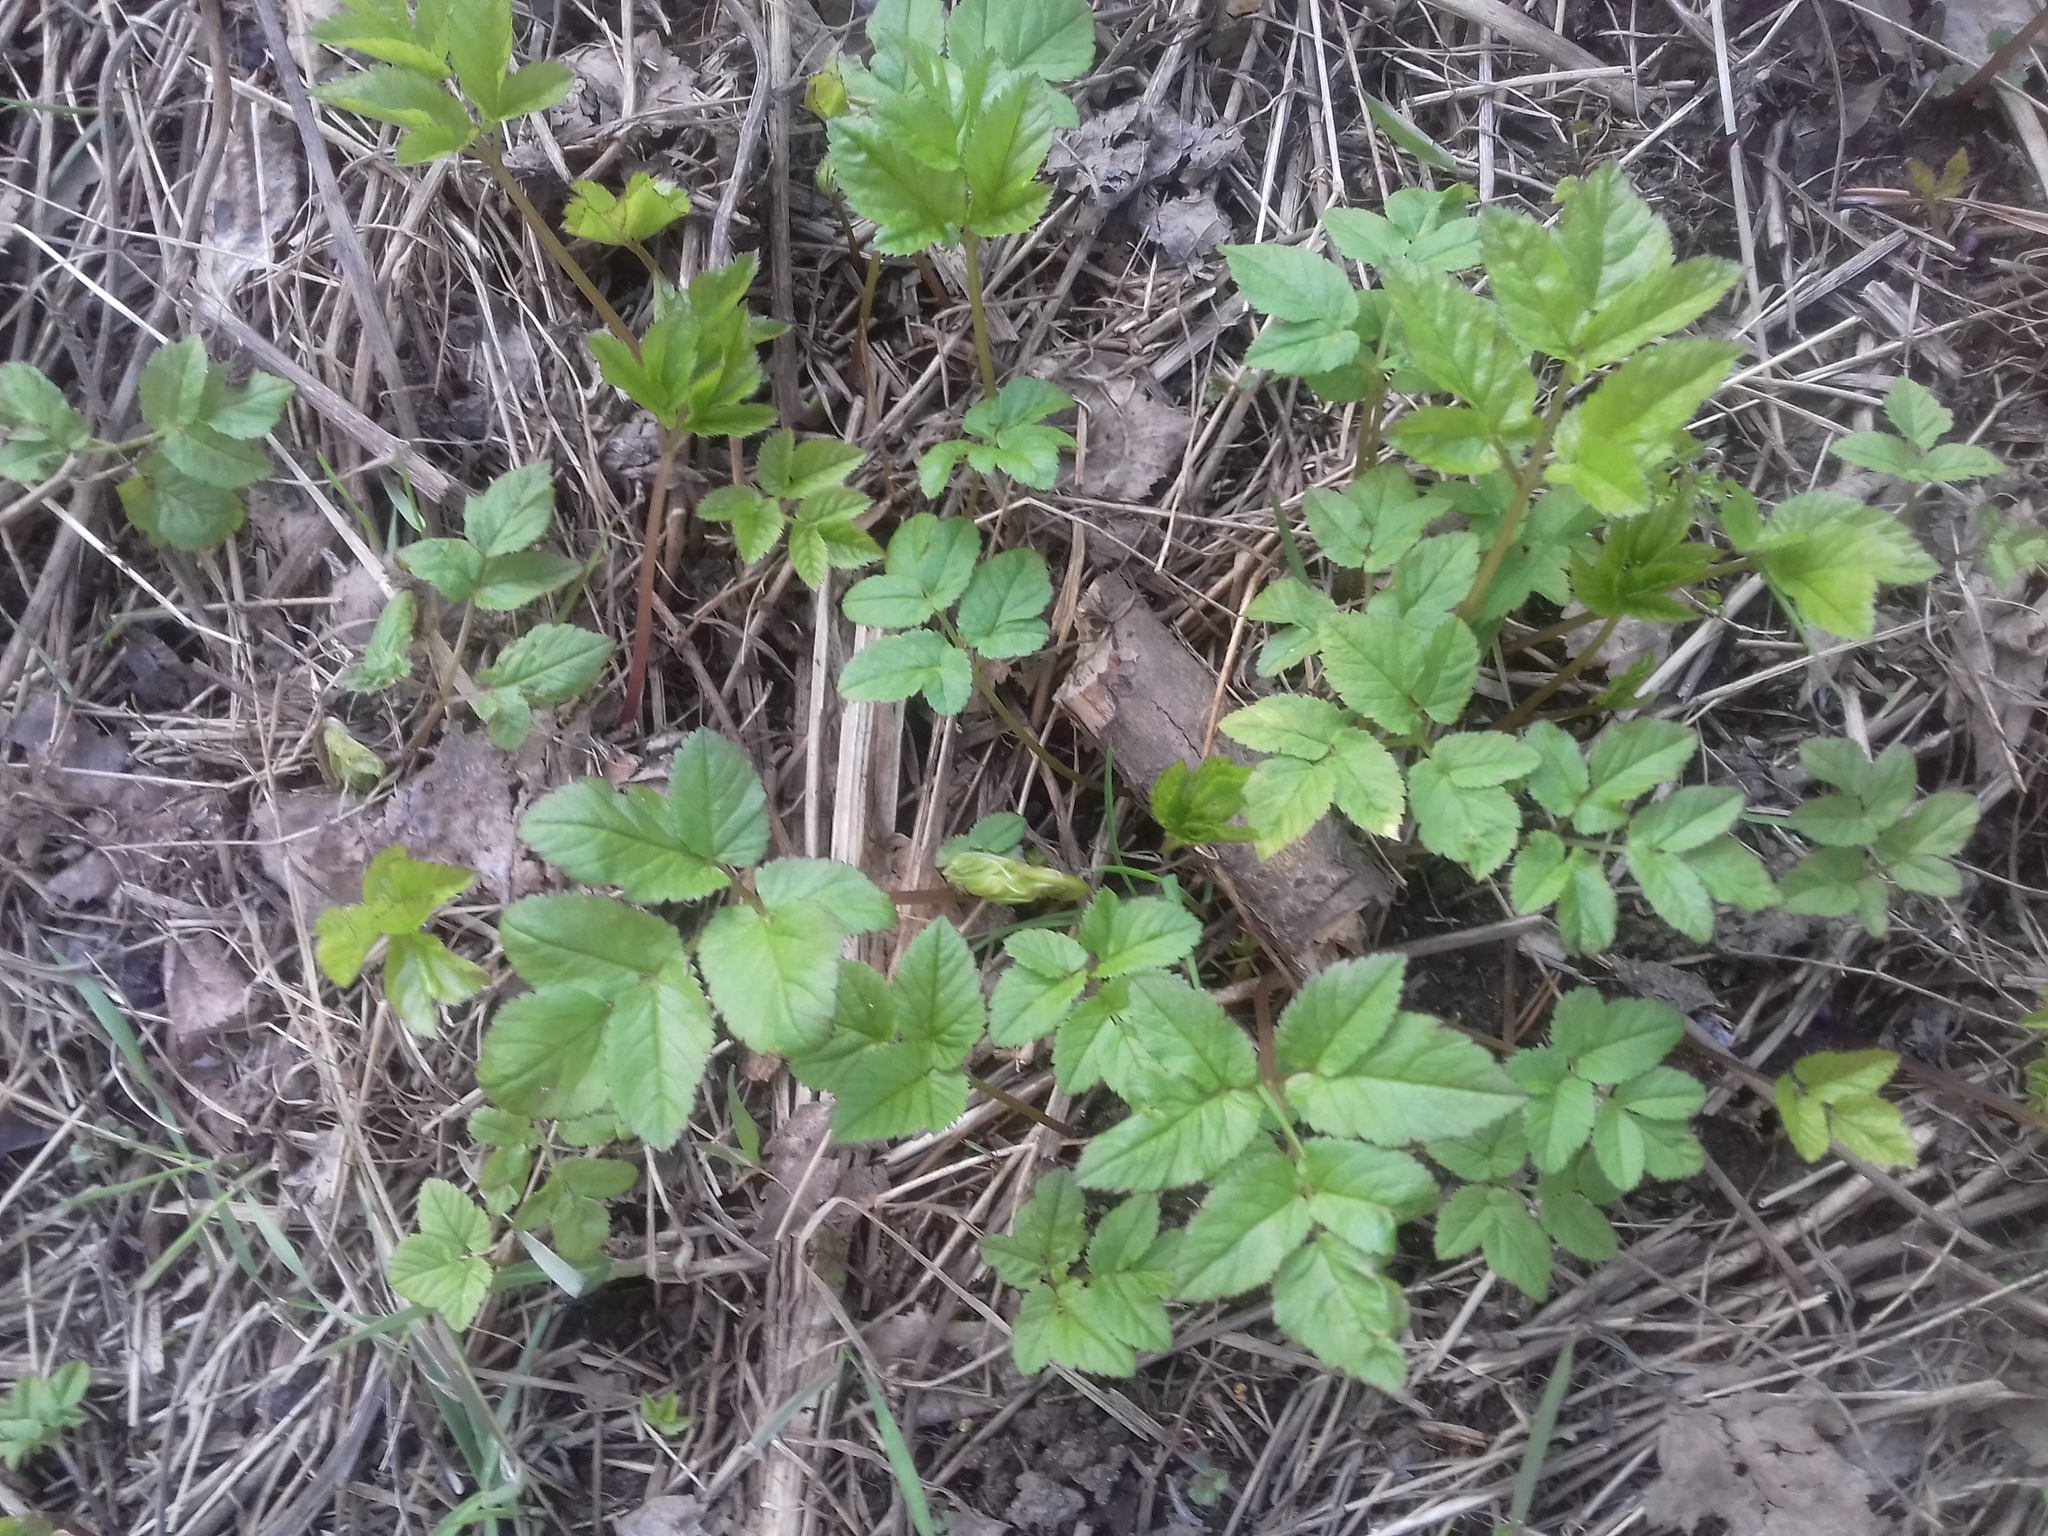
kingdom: Plantae
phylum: Tracheophyta
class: Magnoliopsida
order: Apiales
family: Apiaceae
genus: Aegopodium
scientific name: Aegopodium podagraria
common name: Ground-elder
